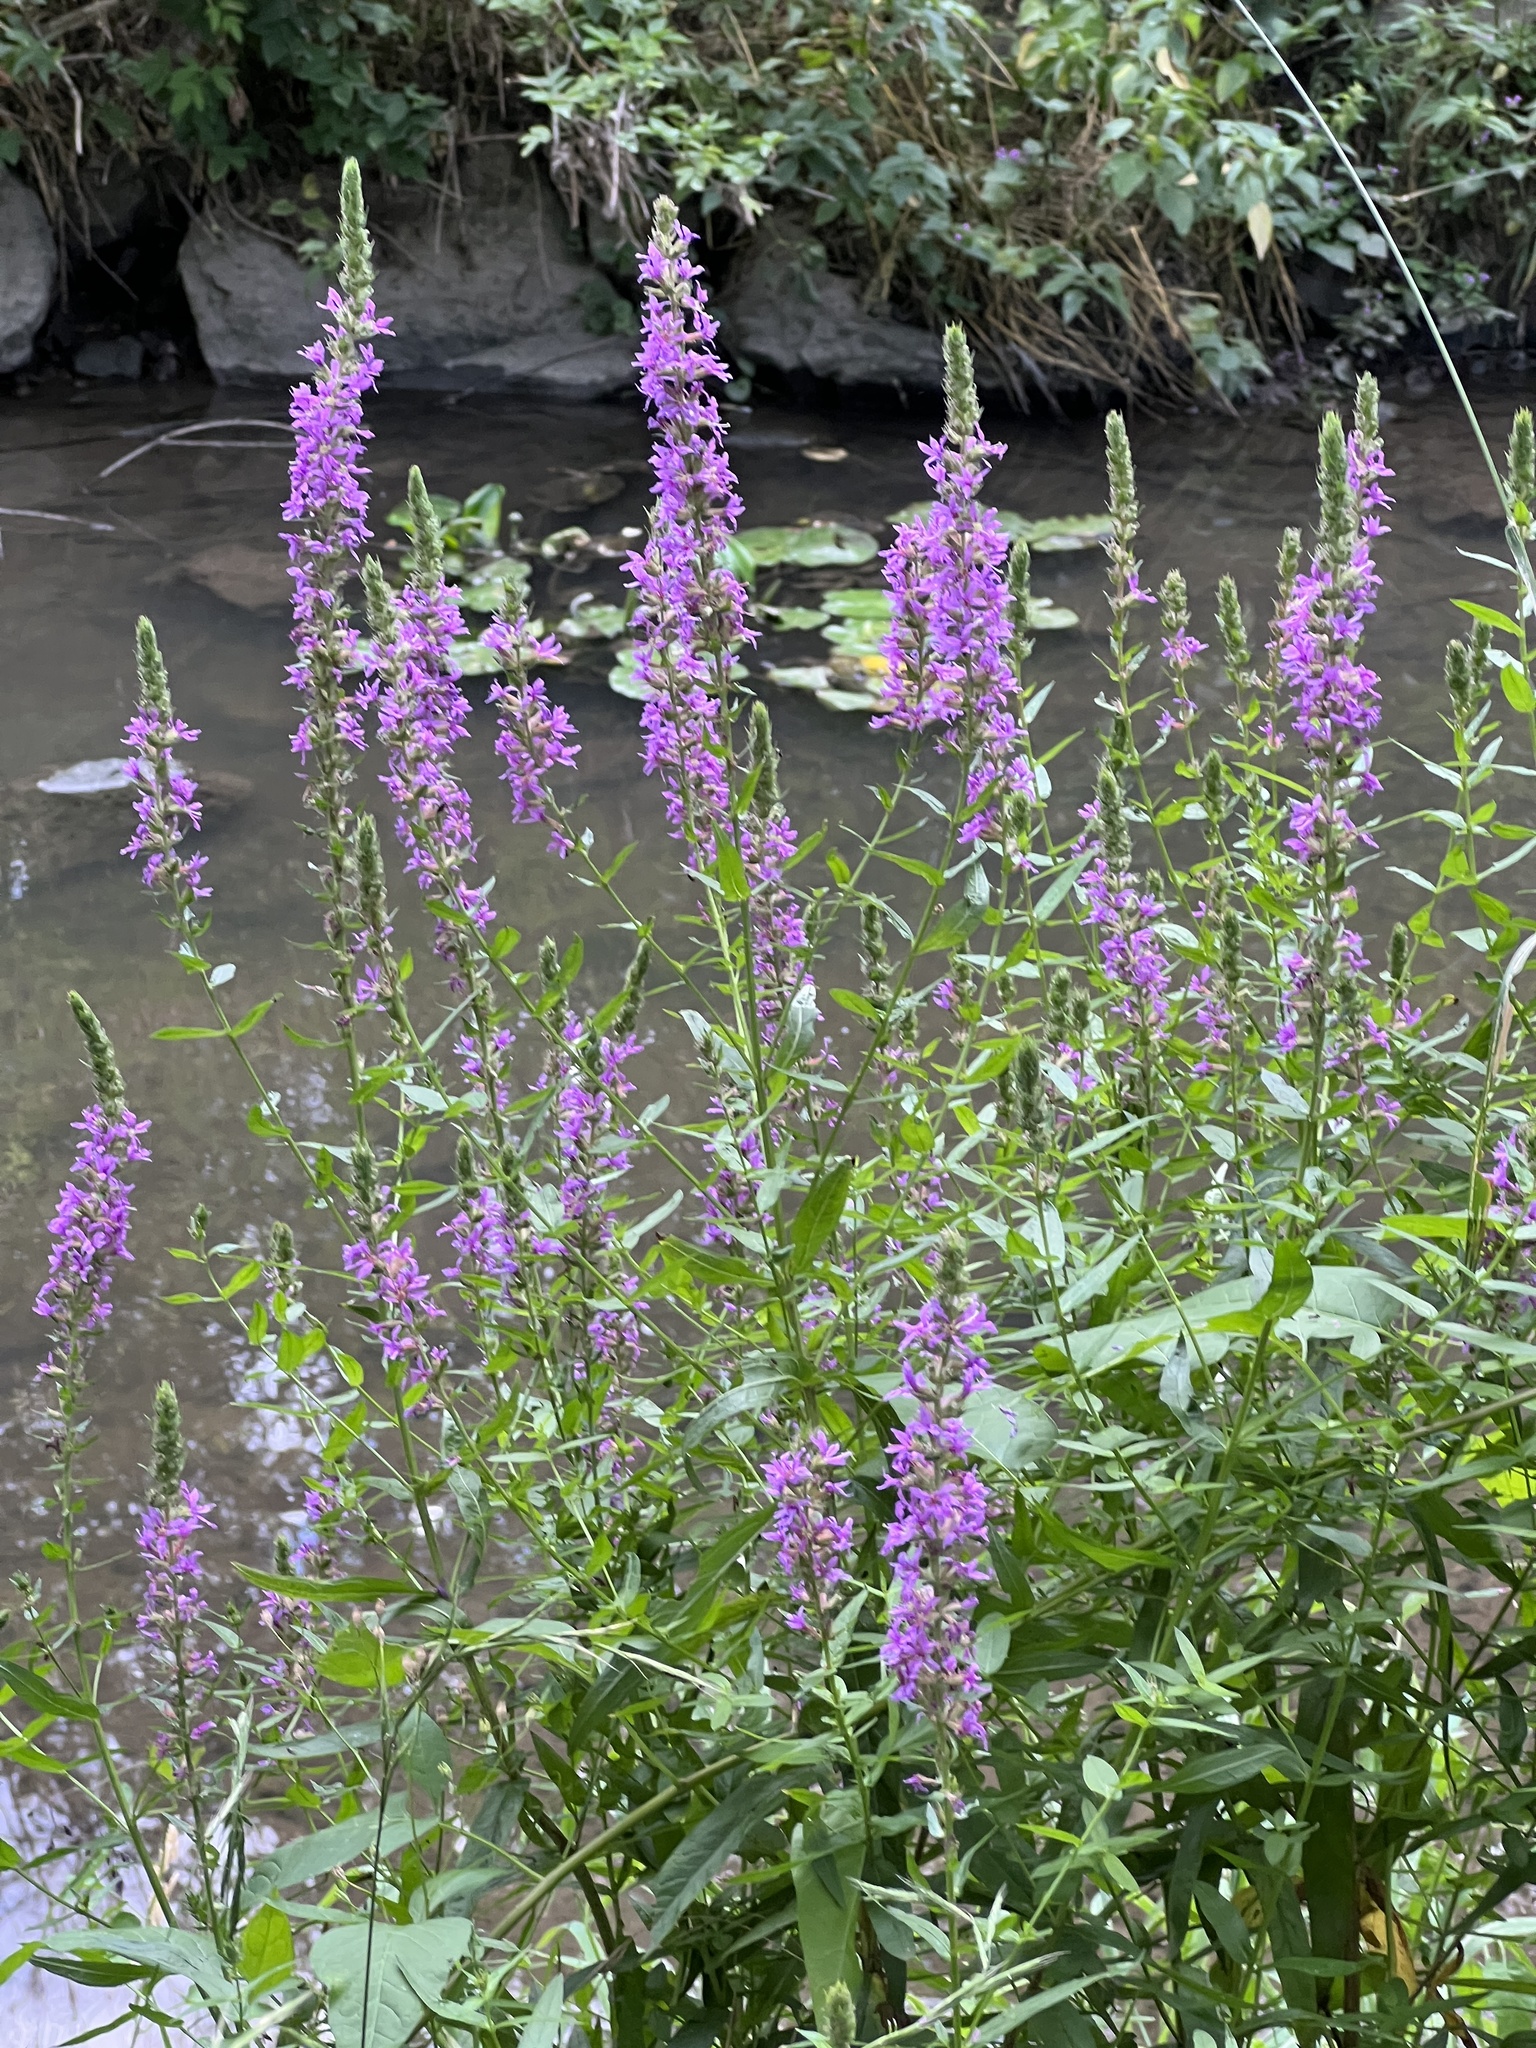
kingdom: Plantae
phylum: Tracheophyta
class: Magnoliopsida
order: Myrtales
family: Lythraceae
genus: Lythrum
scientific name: Lythrum salicaria
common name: Purple loosestrife
